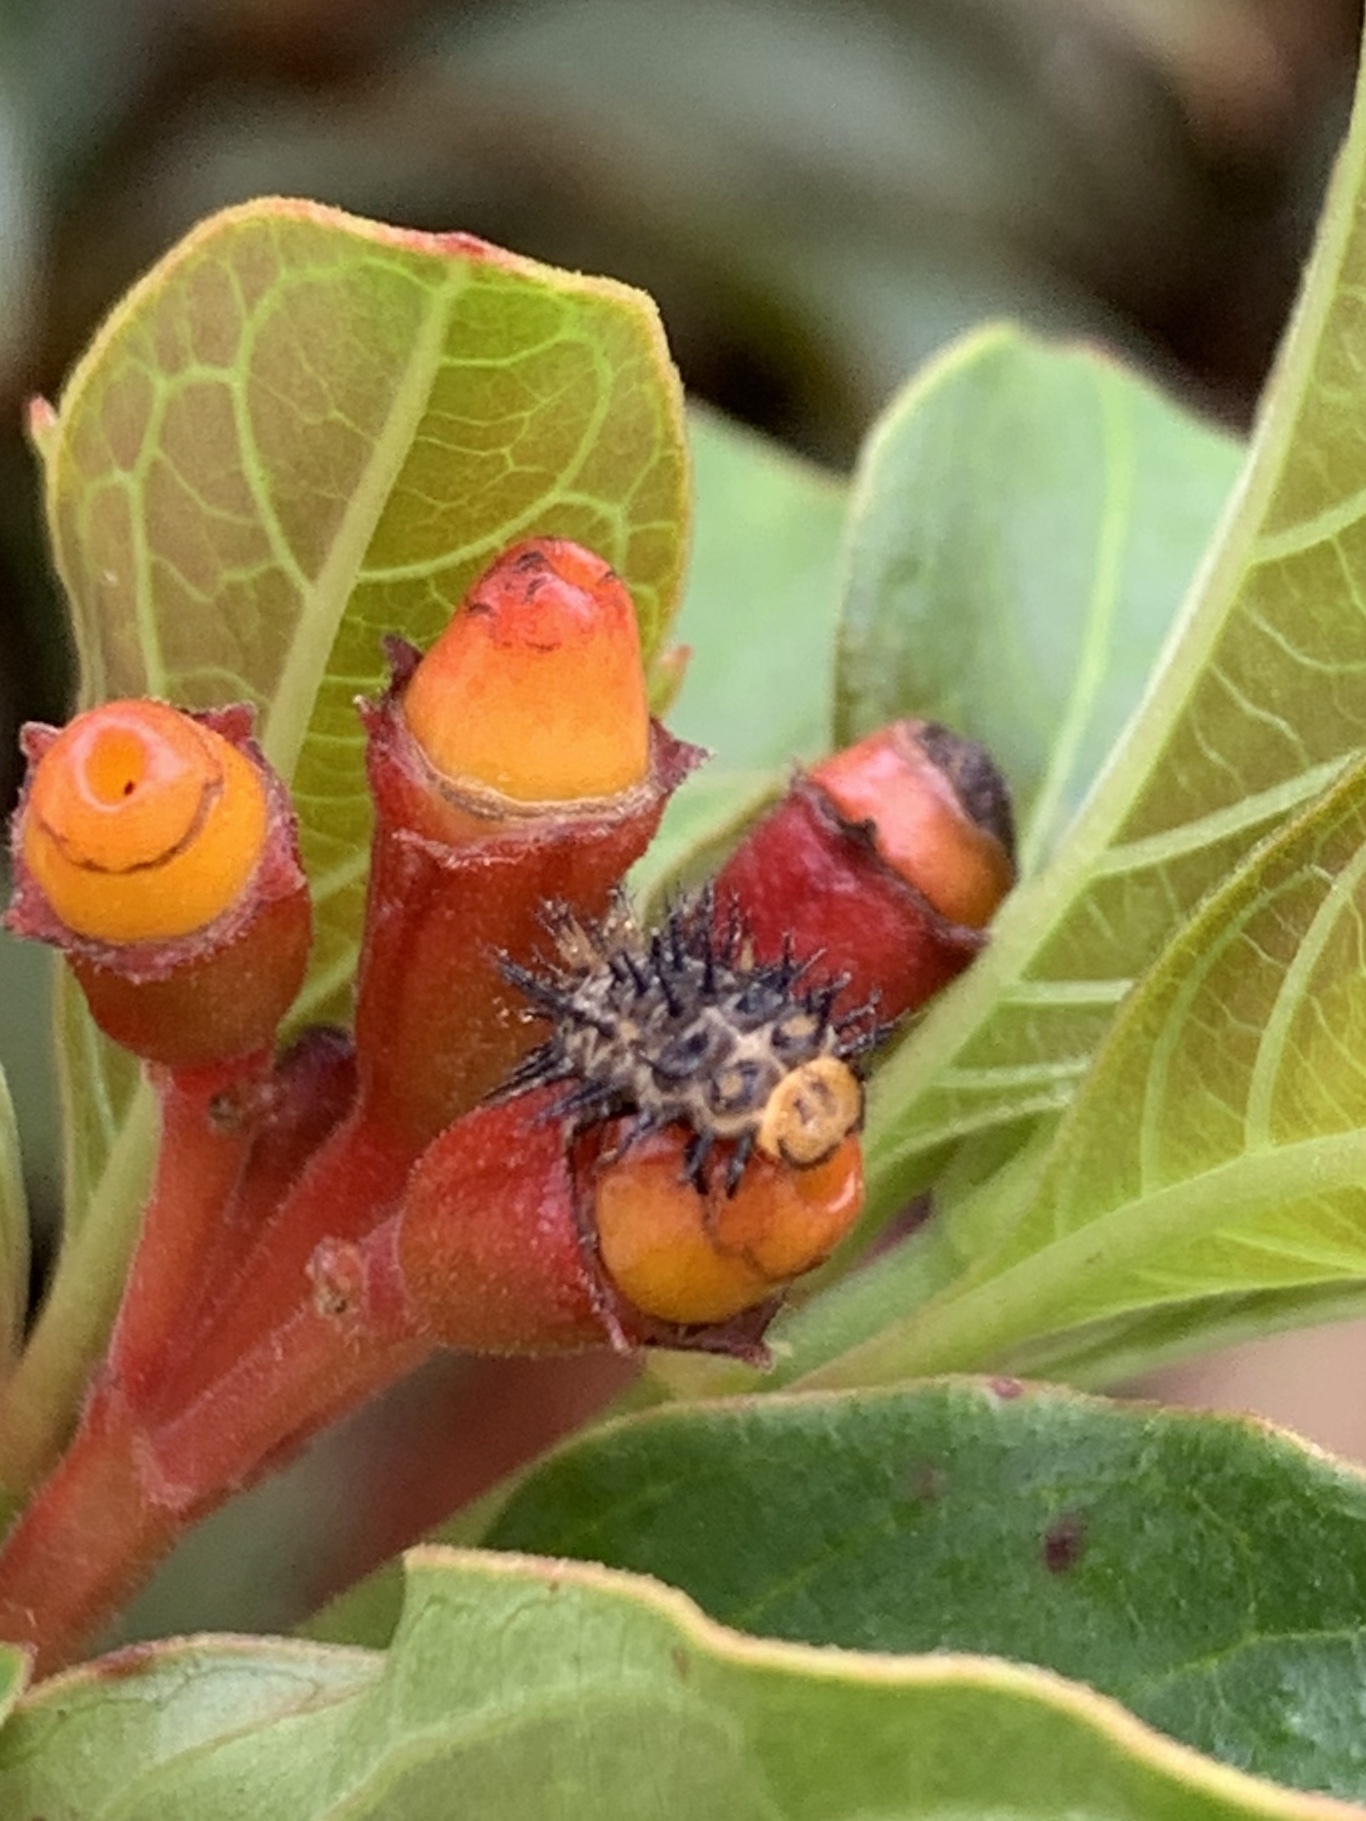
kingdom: Animalia
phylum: Arthropoda
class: Insecta
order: Coleoptera
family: Coccinellidae
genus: Curinus
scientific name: Curinus coeruleus
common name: Ladybird beetle
